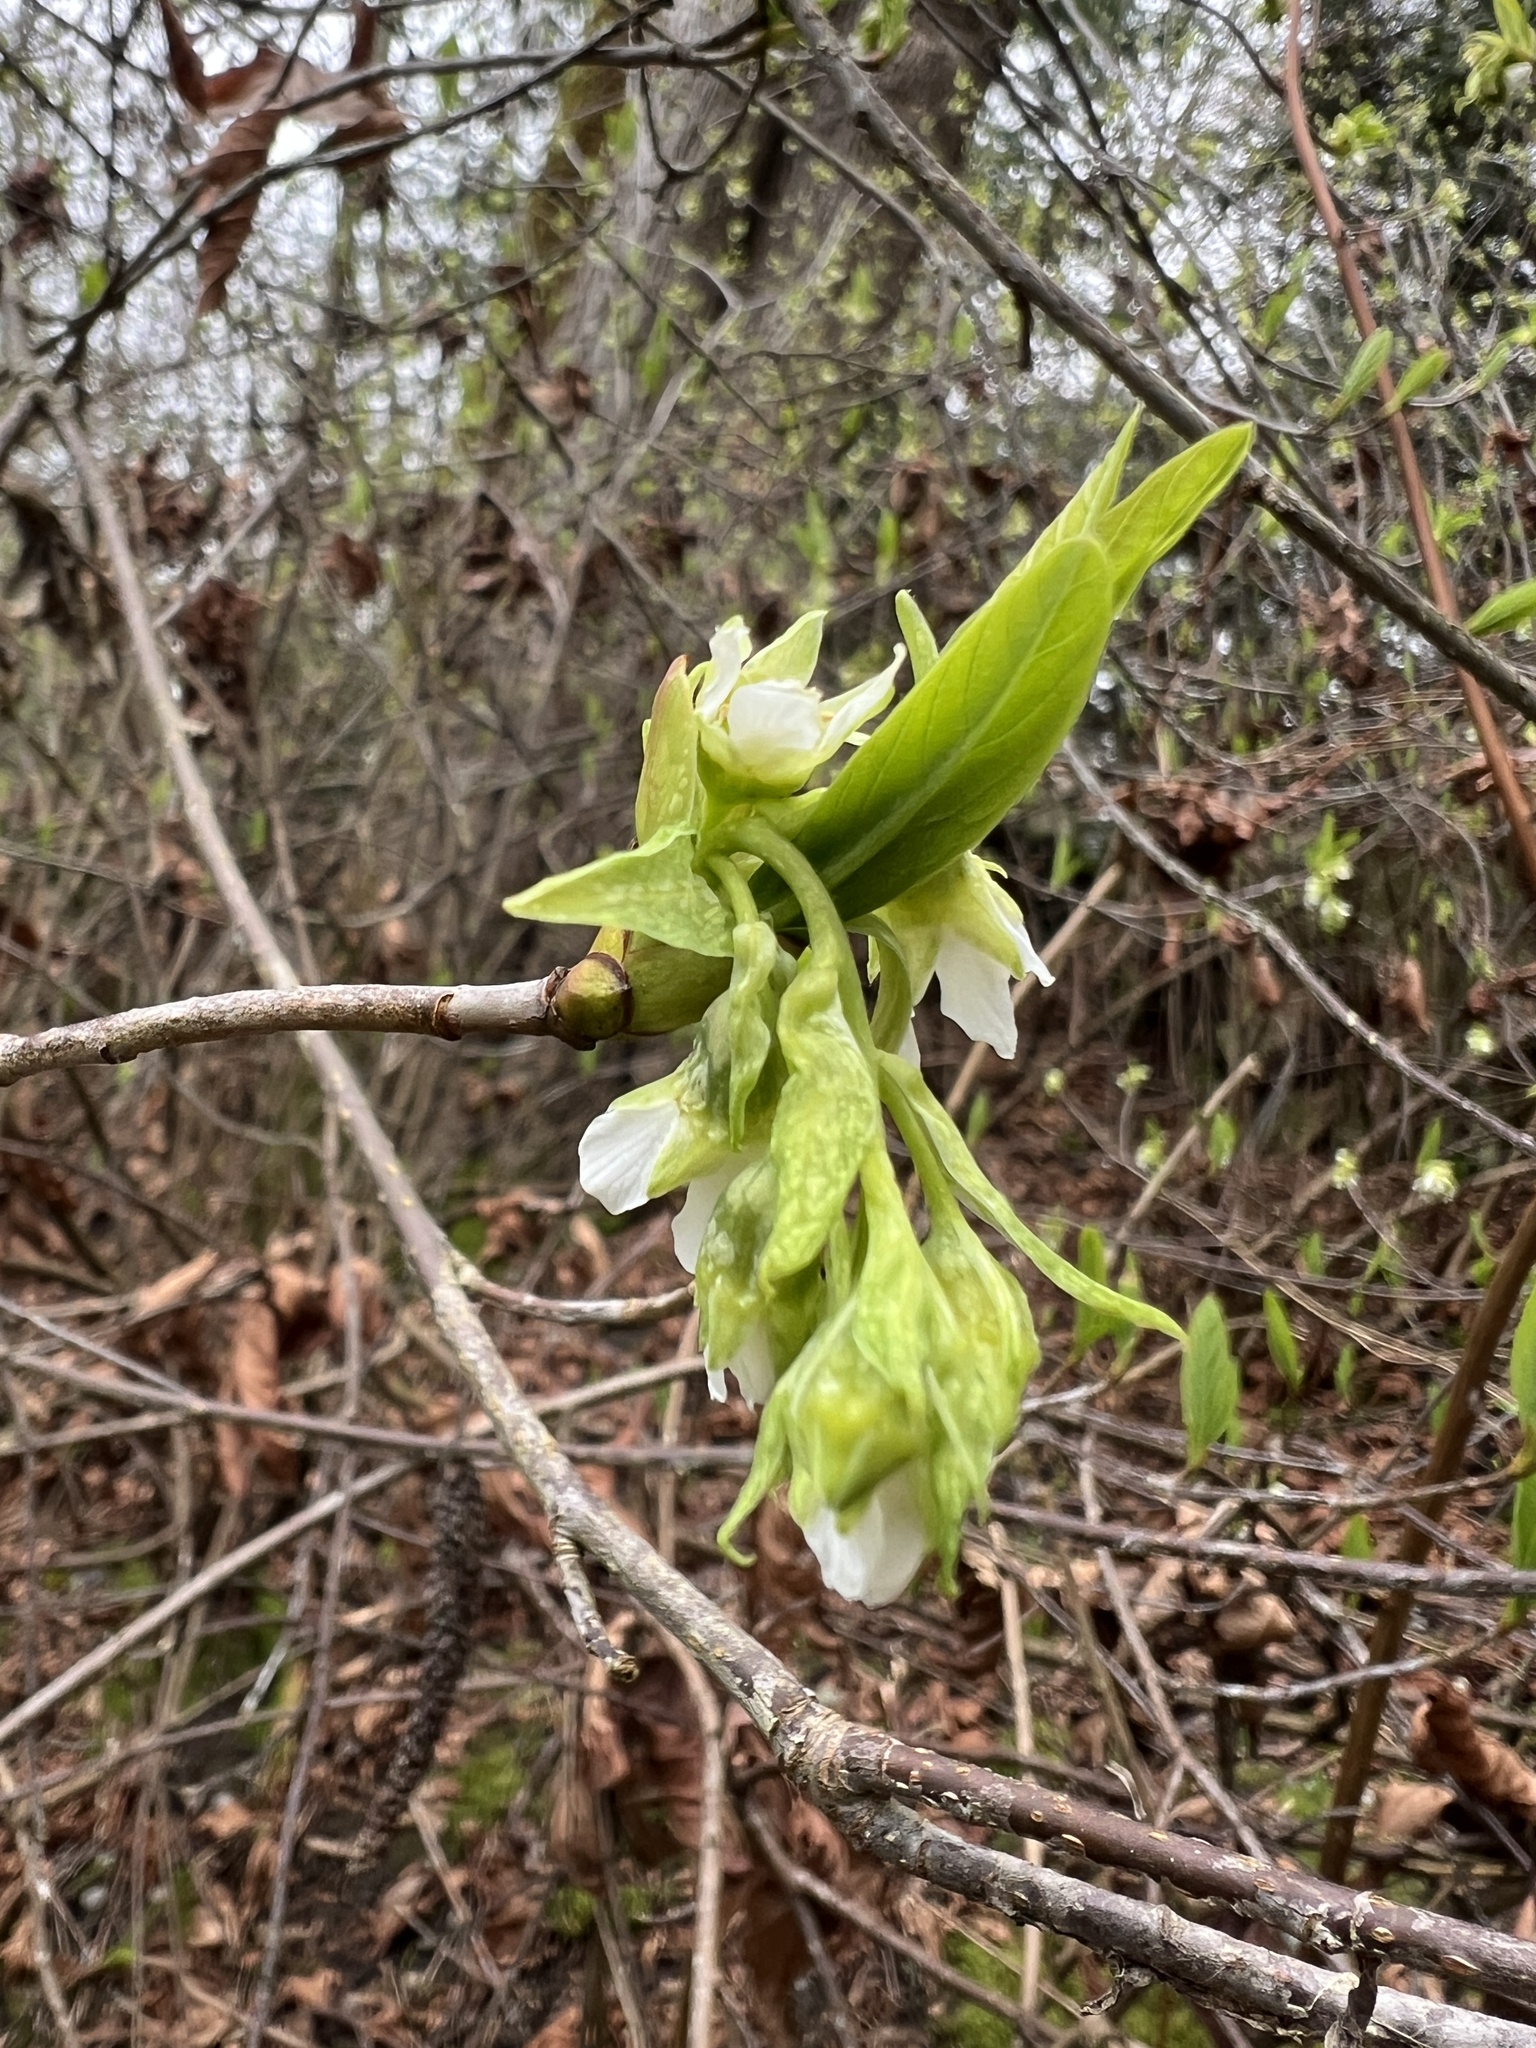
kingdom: Plantae
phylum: Tracheophyta
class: Magnoliopsida
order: Rosales
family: Rosaceae
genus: Oemleria
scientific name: Oemleria cerasiformis
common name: Osoberry
